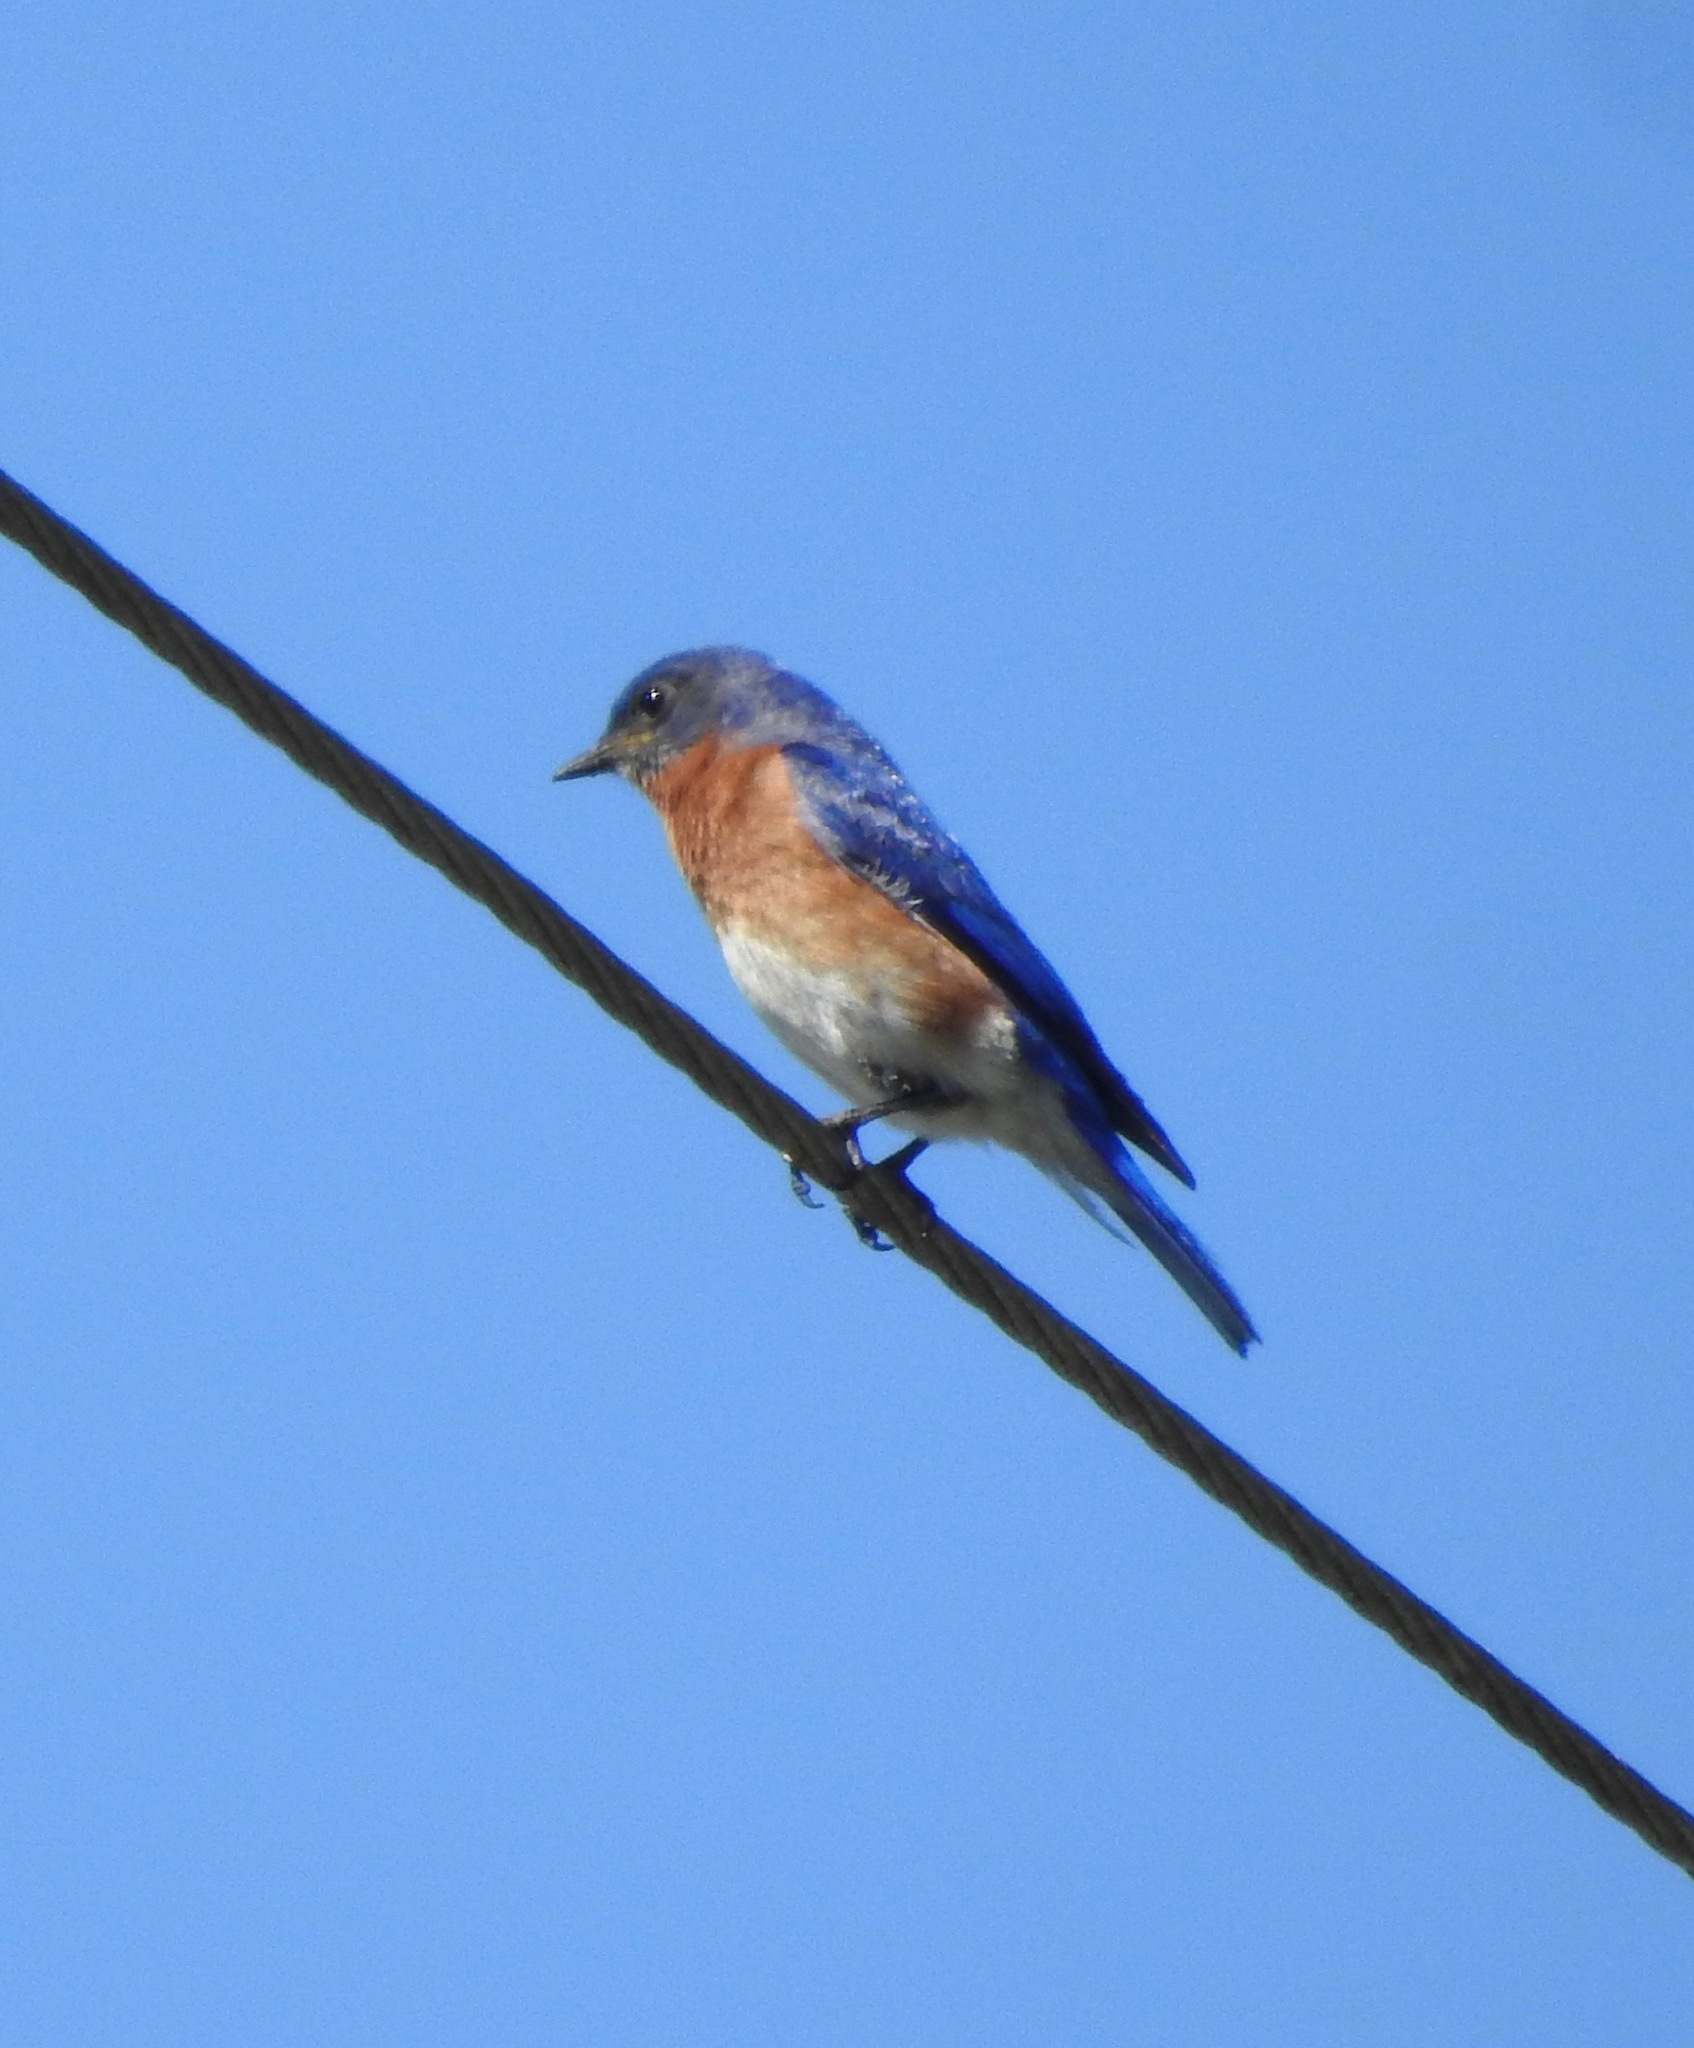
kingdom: Animalia
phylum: Chordata
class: Aves
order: Passeriformes
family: Turdidae
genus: Sialia
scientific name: Sialia sialis
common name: Eastern bluebird
